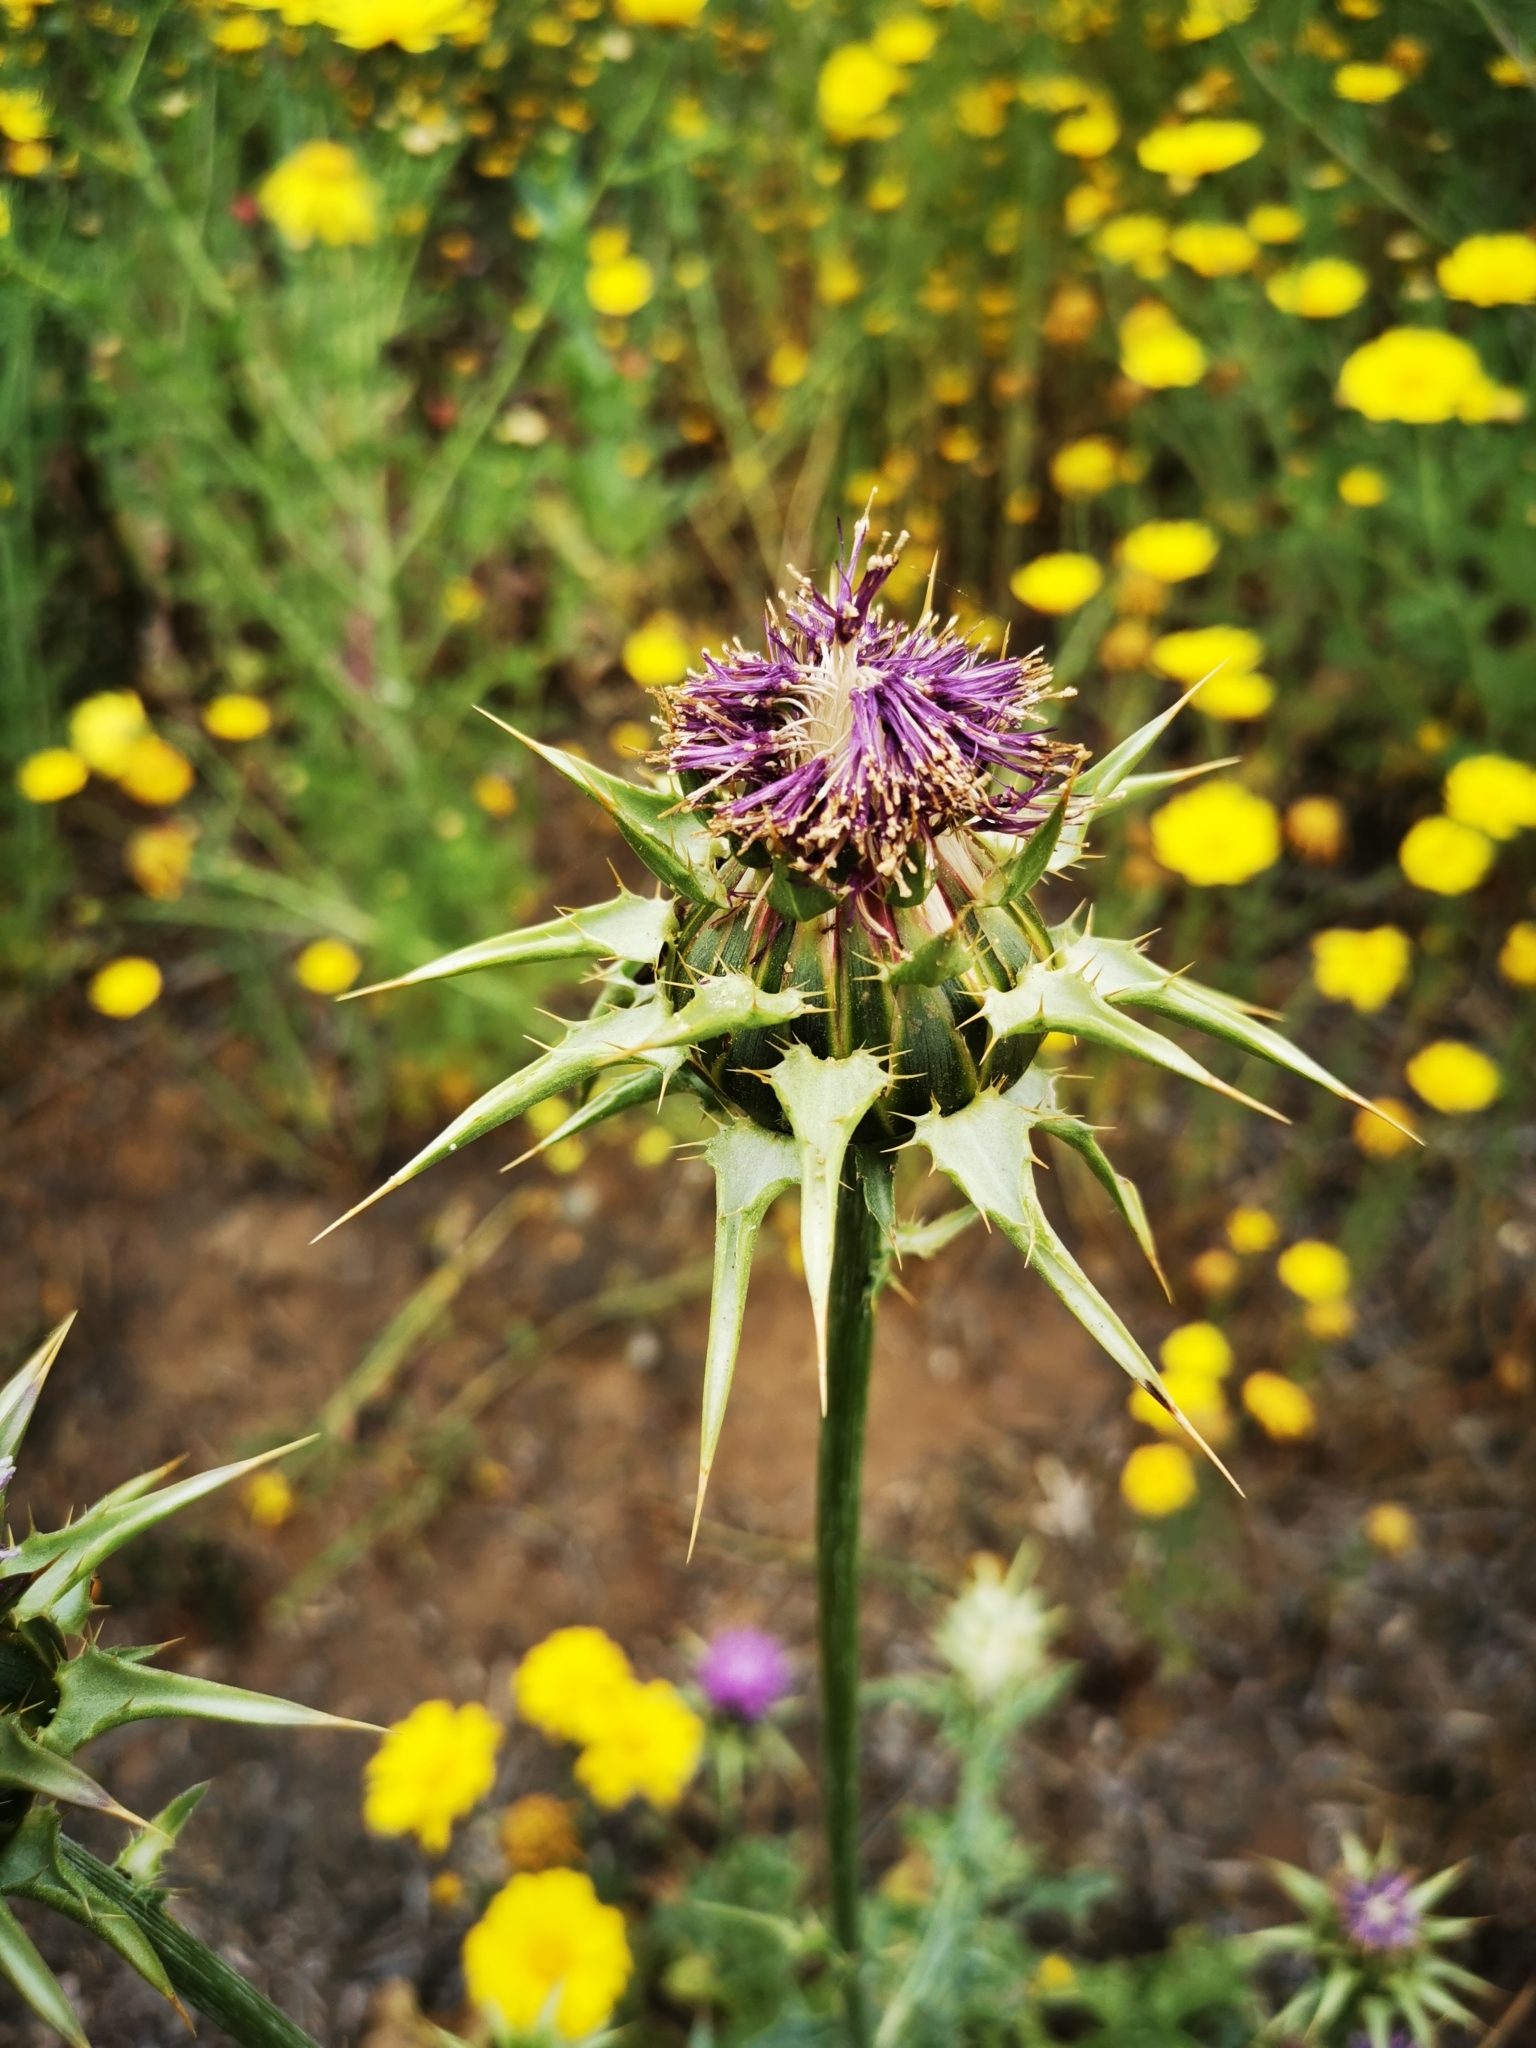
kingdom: Plantae
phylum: Tracheophyta
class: Magnoliopsida
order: Asterales
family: Asteraceae
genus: Silybum
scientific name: Silybum marianum
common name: Milk thistle
